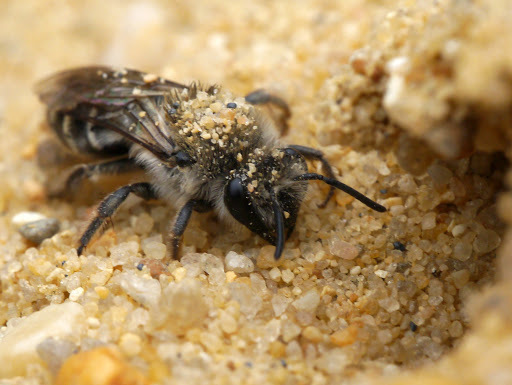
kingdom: Animalia
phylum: Arthropoda
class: Insecta
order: Hymenoptera
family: Colletidae
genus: Colletes
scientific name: Colletes inaequalis
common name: Unequal cellophane bee
